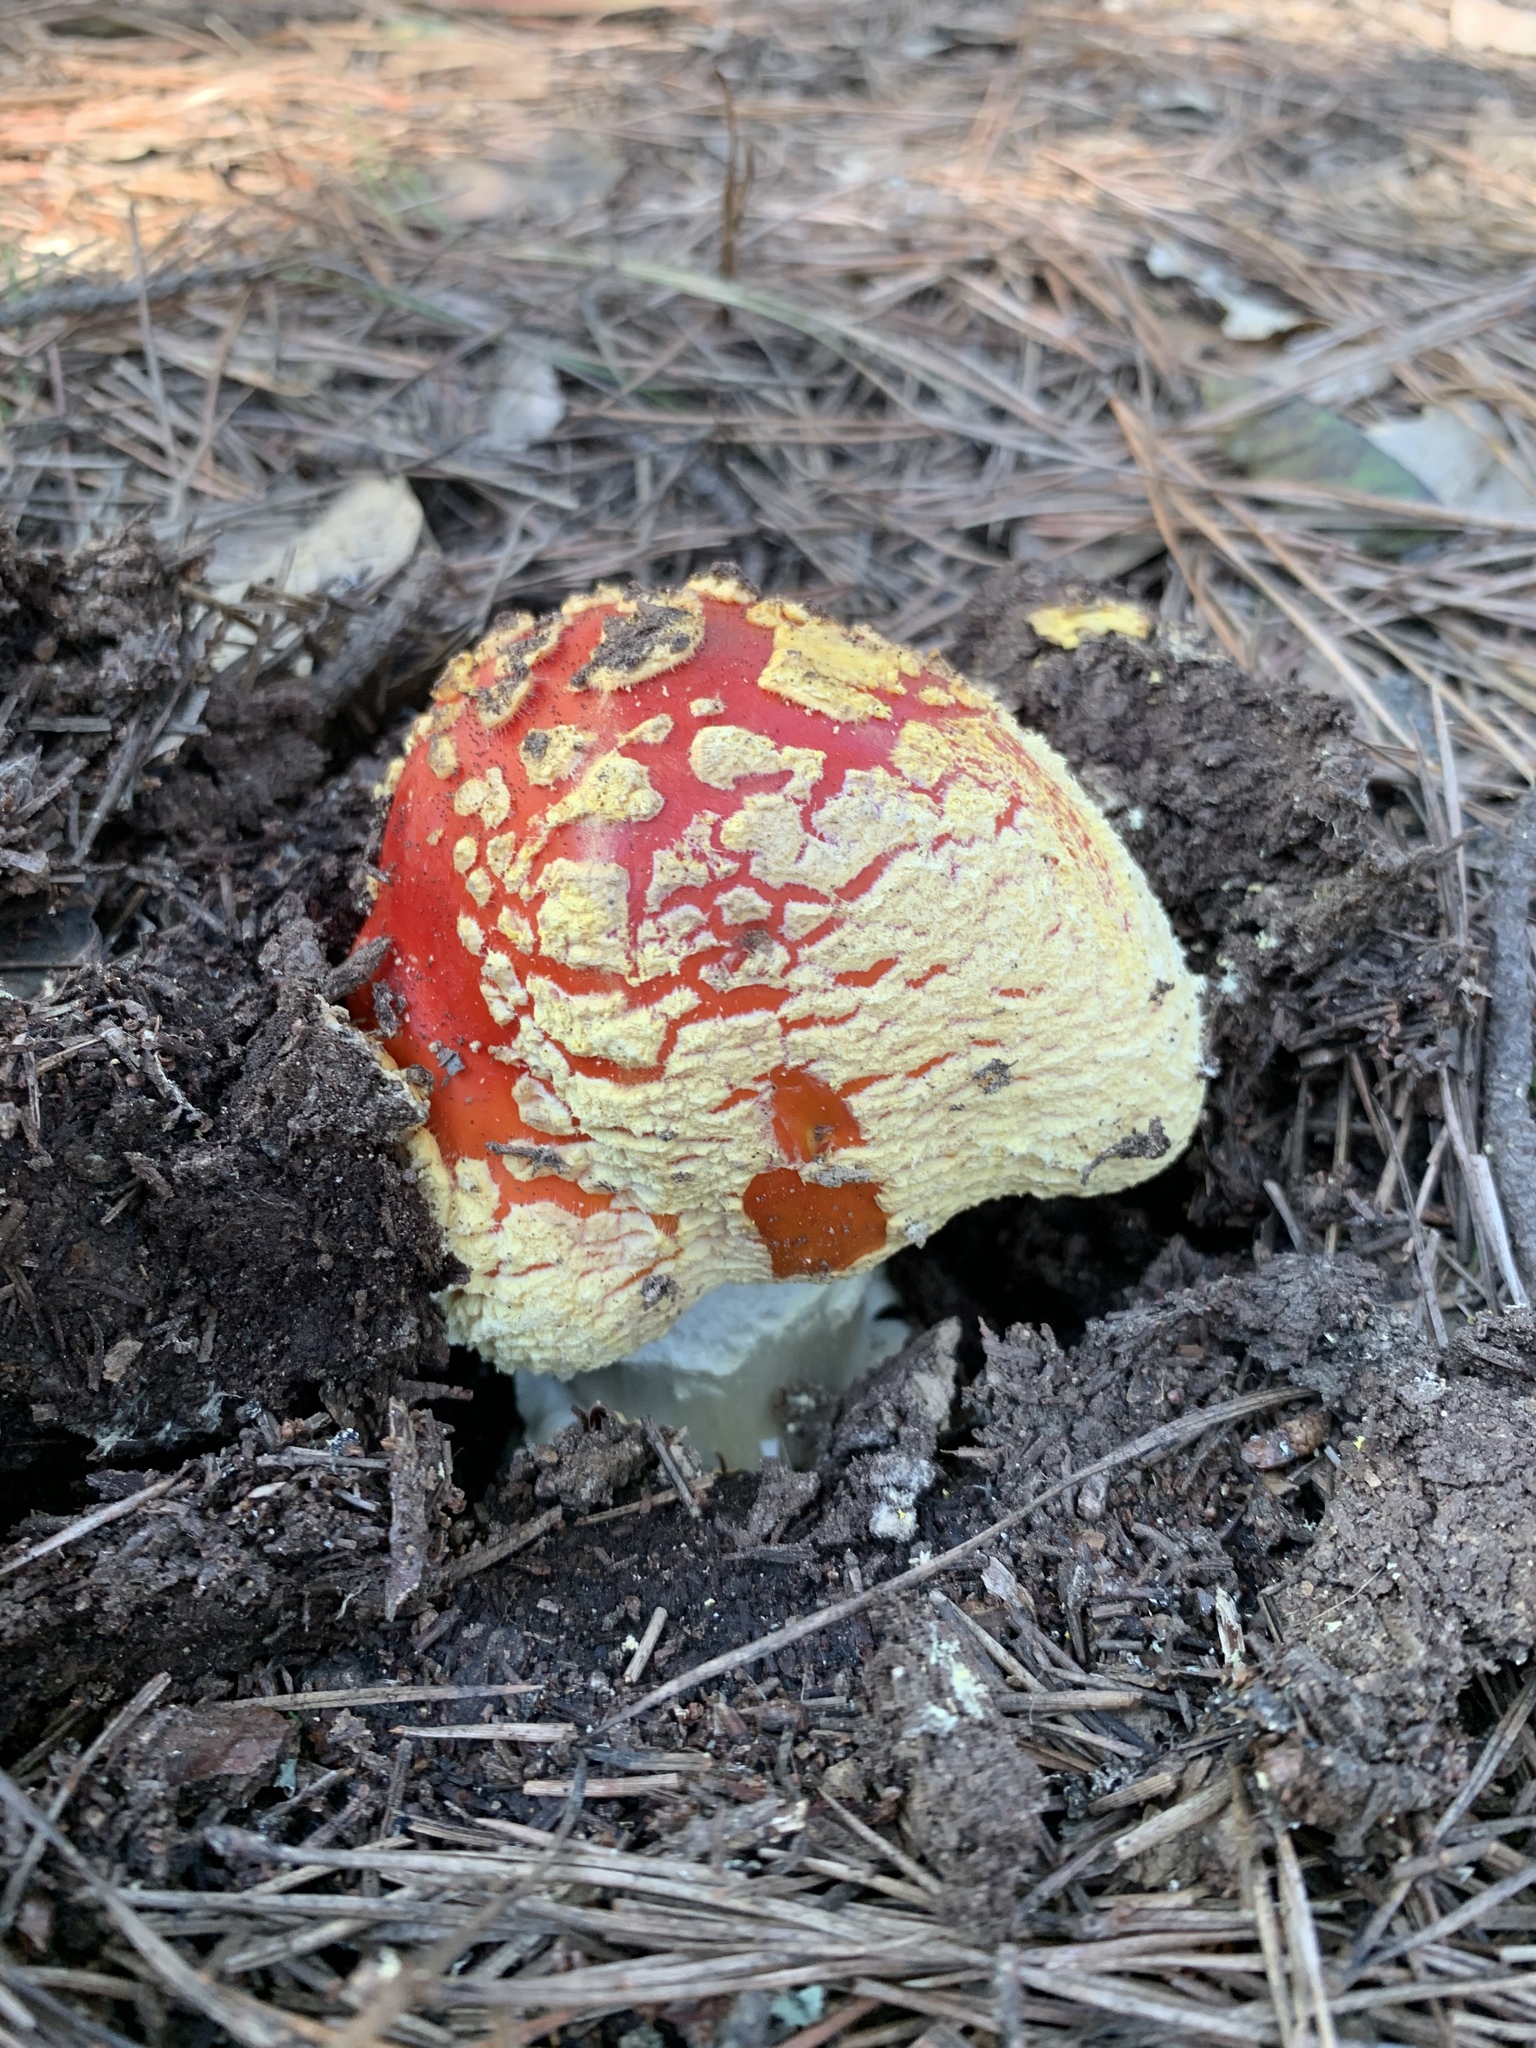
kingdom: Fungi
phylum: Basidiomycota
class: Agaricomycetes
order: Agaricales
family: Amanitaceae
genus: Amanita
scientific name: Amanita muscaria
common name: Fly agaric
